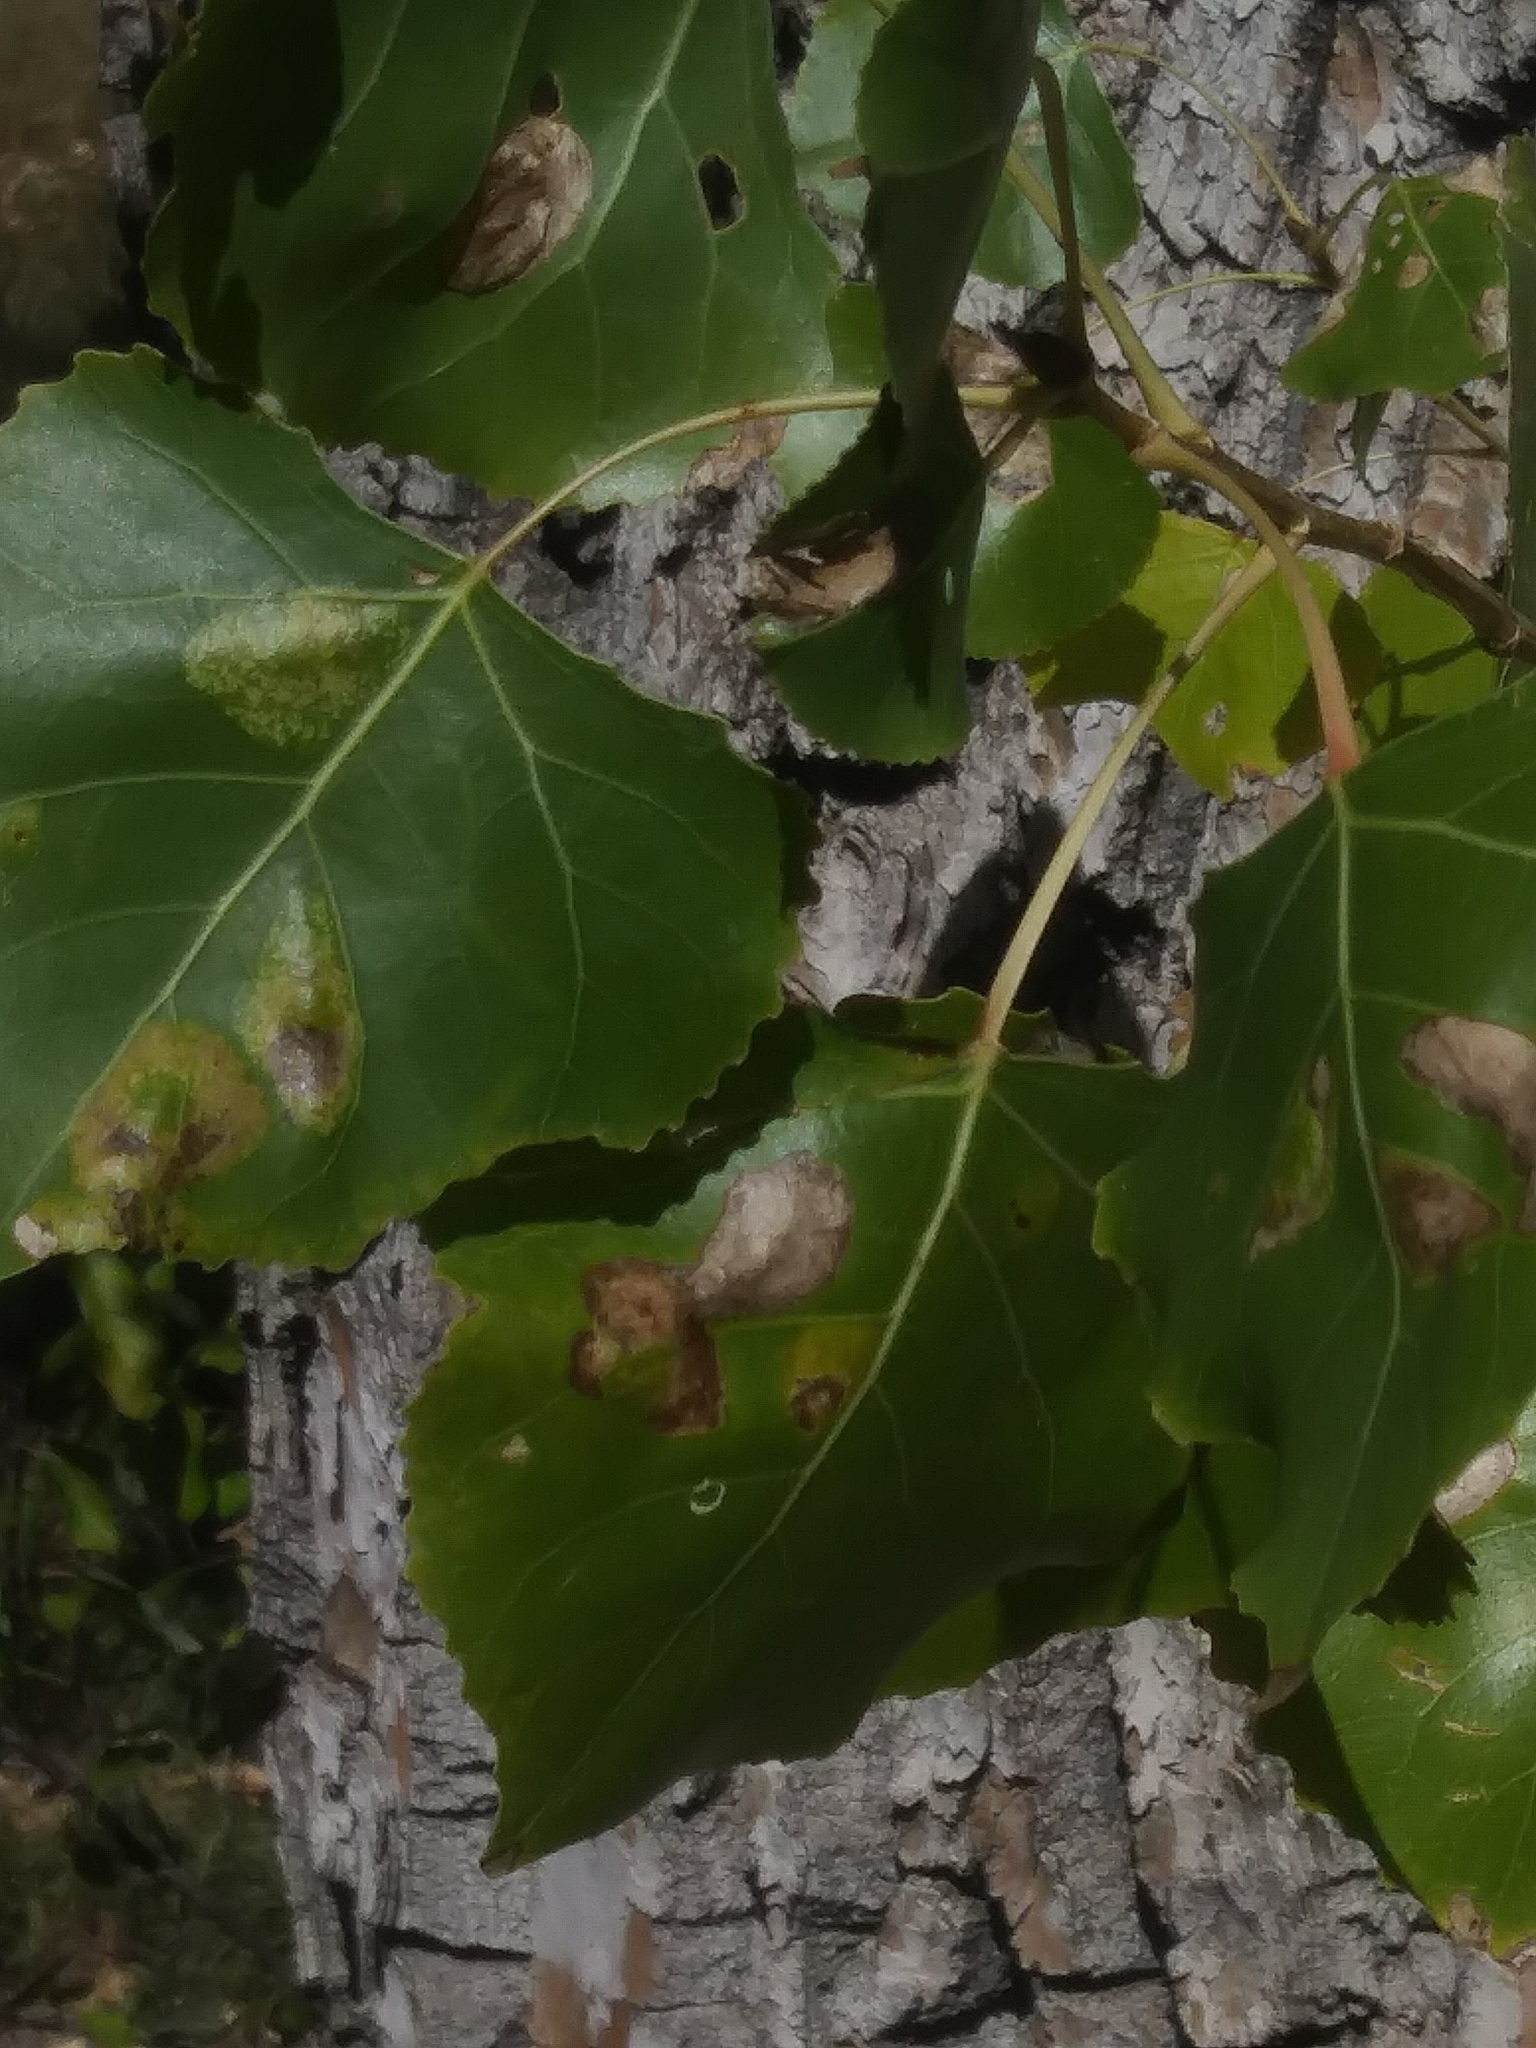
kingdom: Plantae
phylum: Tracheophyta
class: Magnoliopsida
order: Malpighiales
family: Salicaceae
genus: Populus
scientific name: Populus deltoides
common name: Eastern cottonwood
